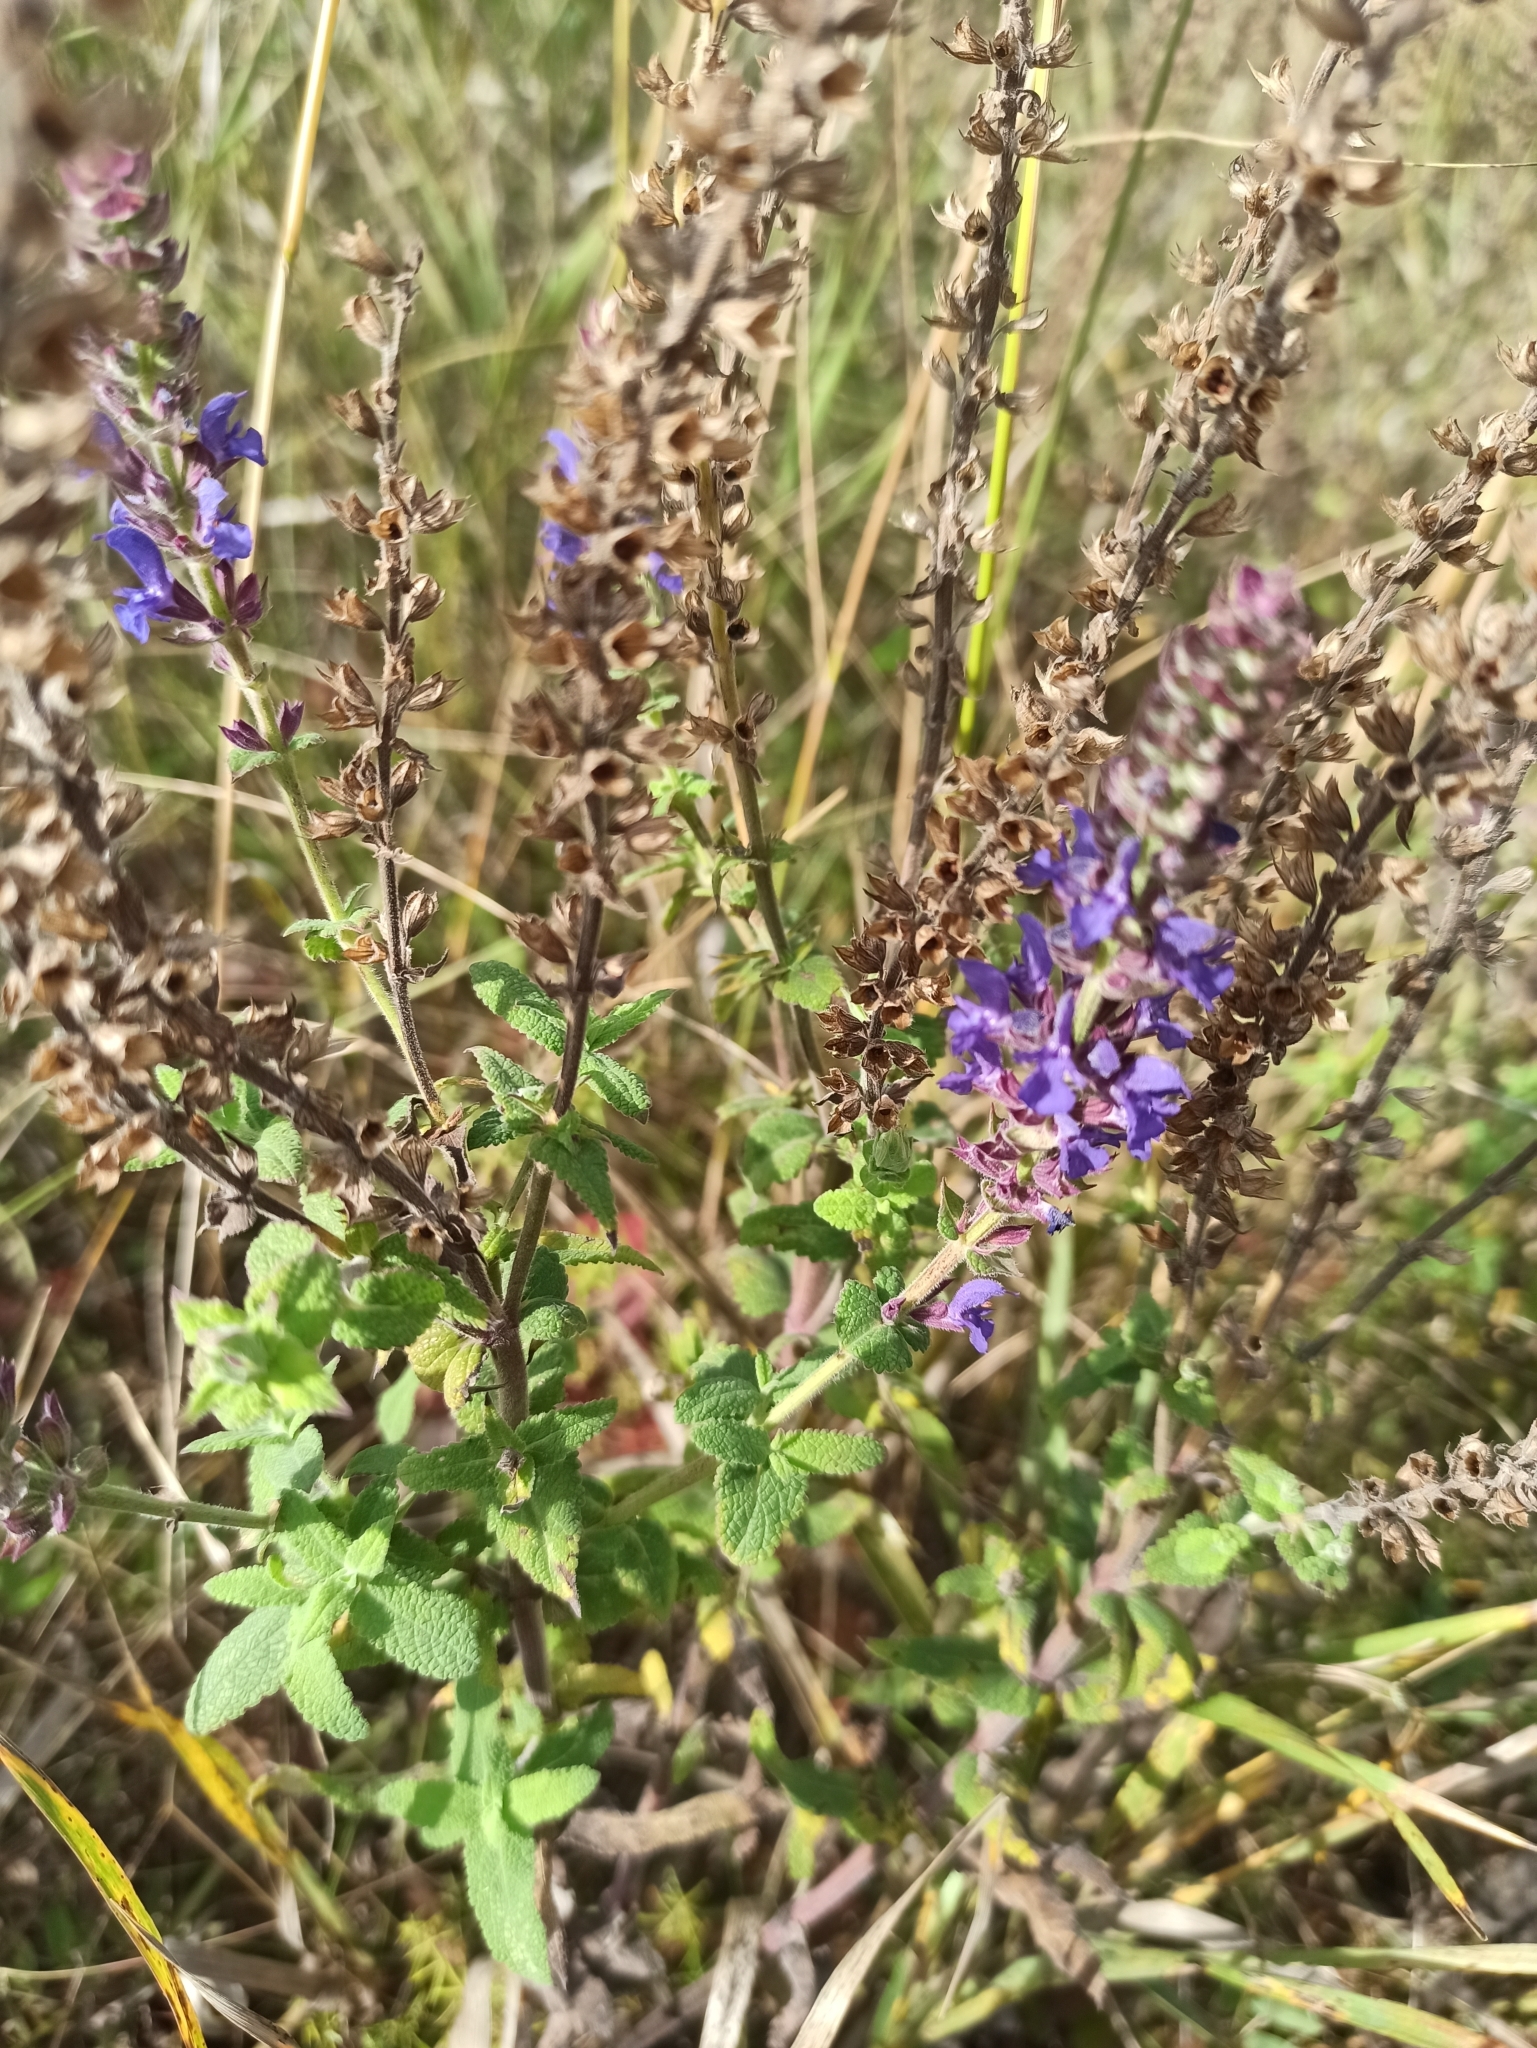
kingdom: Plantae
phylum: Tracheophyta
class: Magnoliopsida
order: Lamiales
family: Lamiaceae
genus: Salvia
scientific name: Salvia nemorosa
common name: Balkan clary
